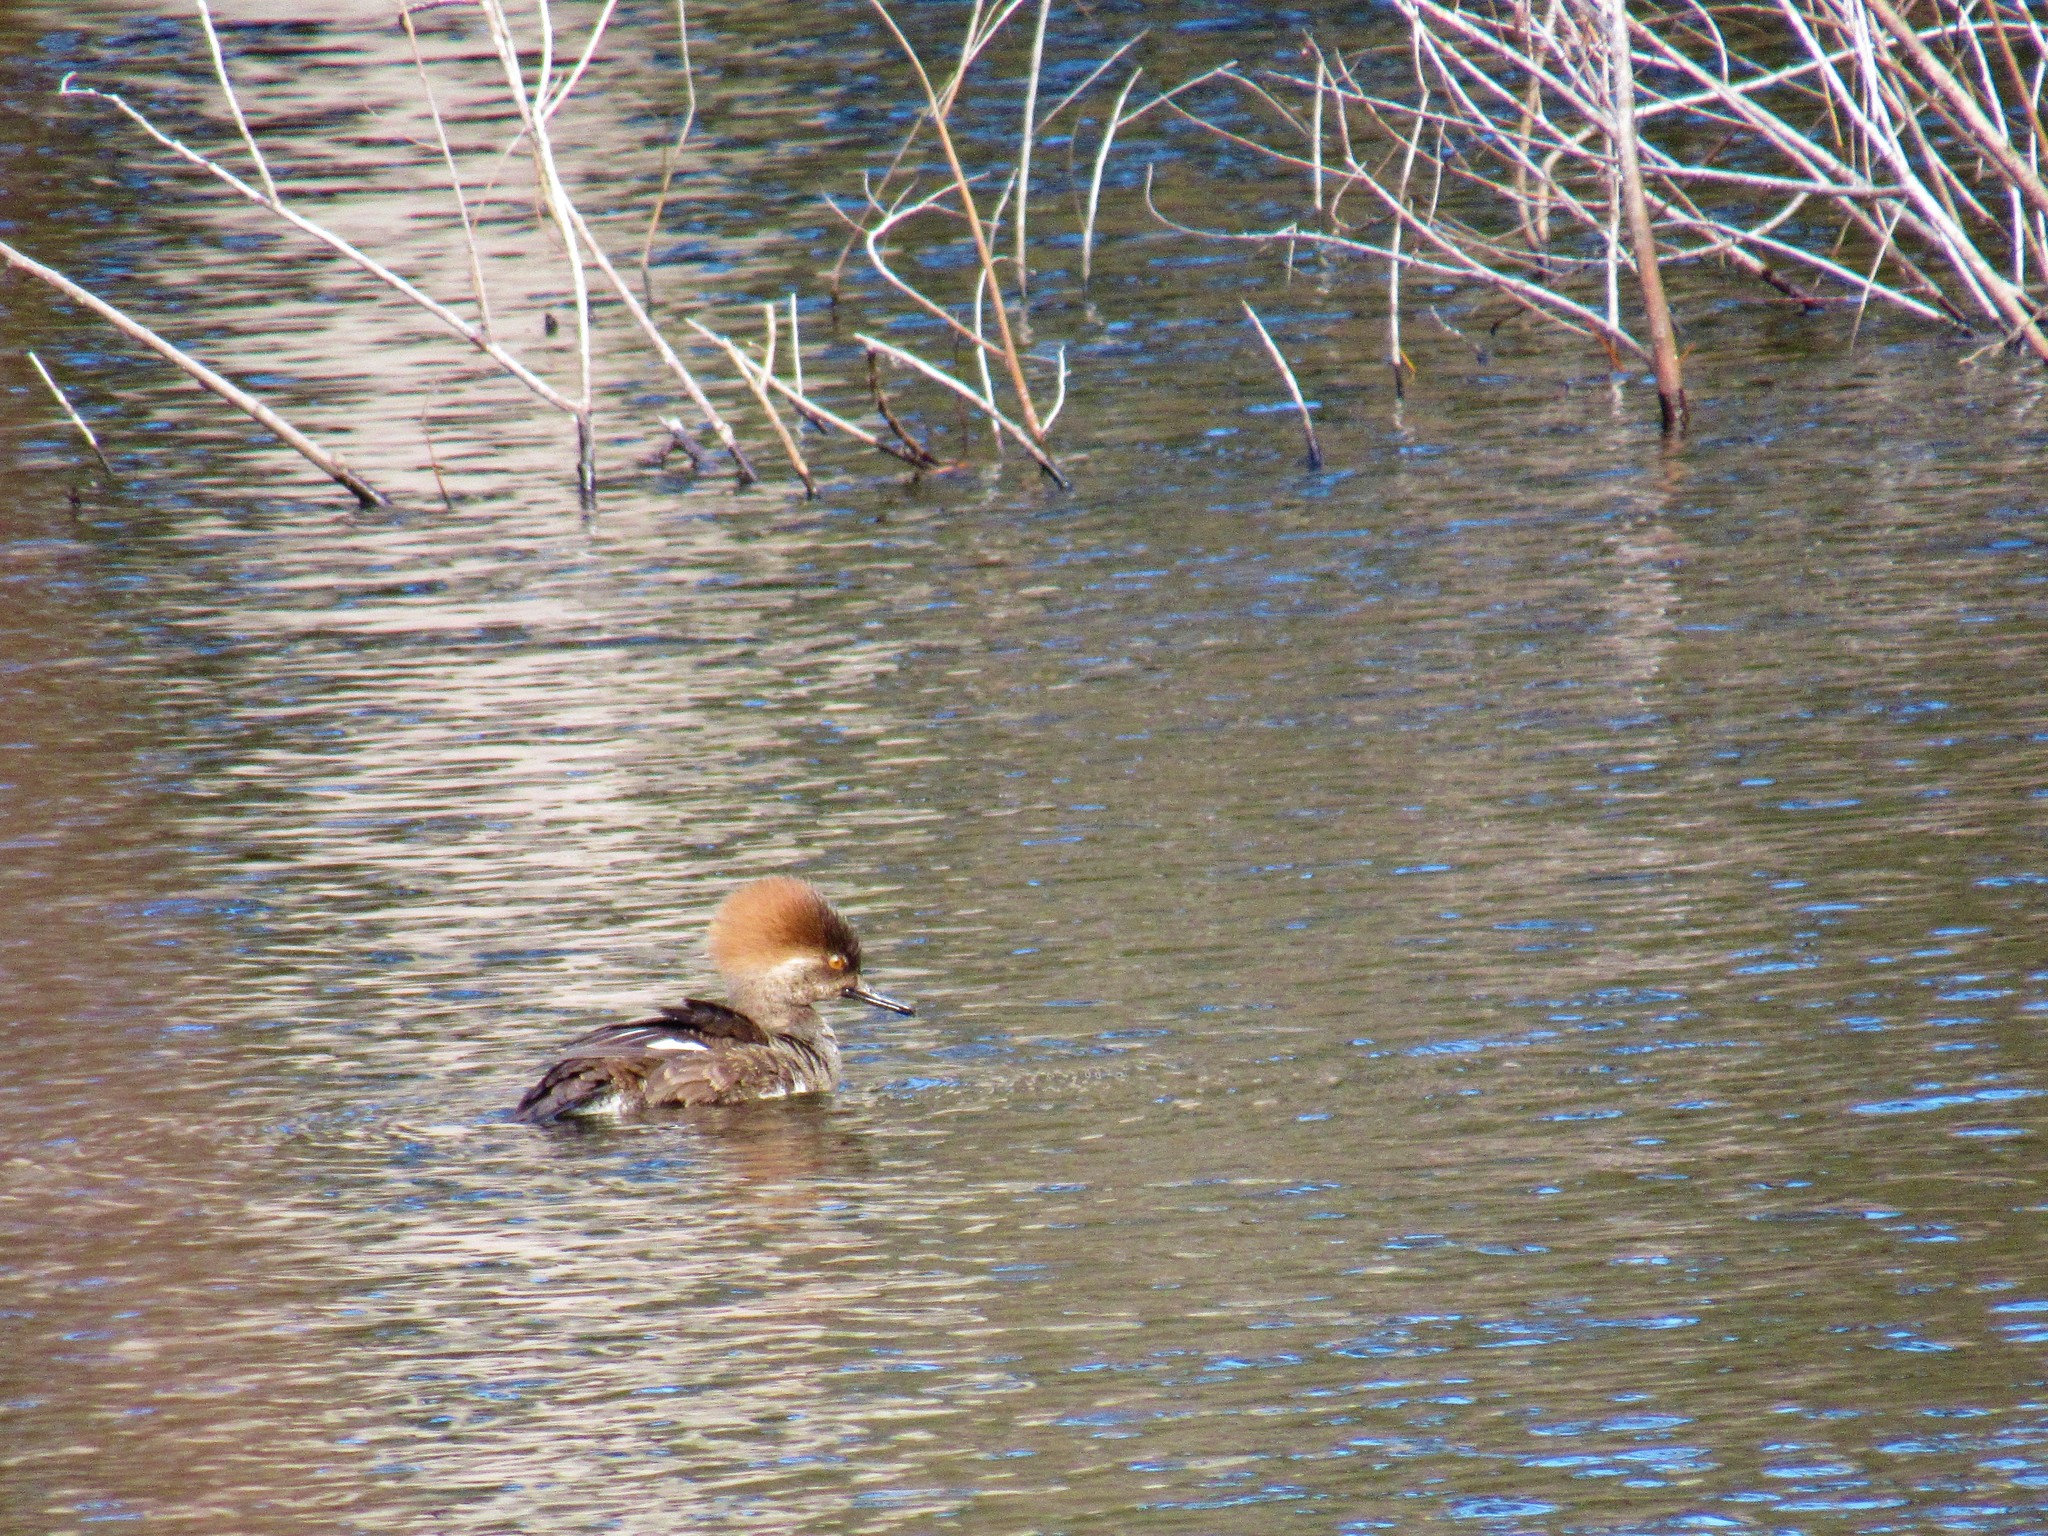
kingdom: Animalia
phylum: Chordata
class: Aves
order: Anseriformes
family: Anatidae
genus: Lophodytes
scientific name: Lophodytes cucullatus
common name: Hooded merganser
